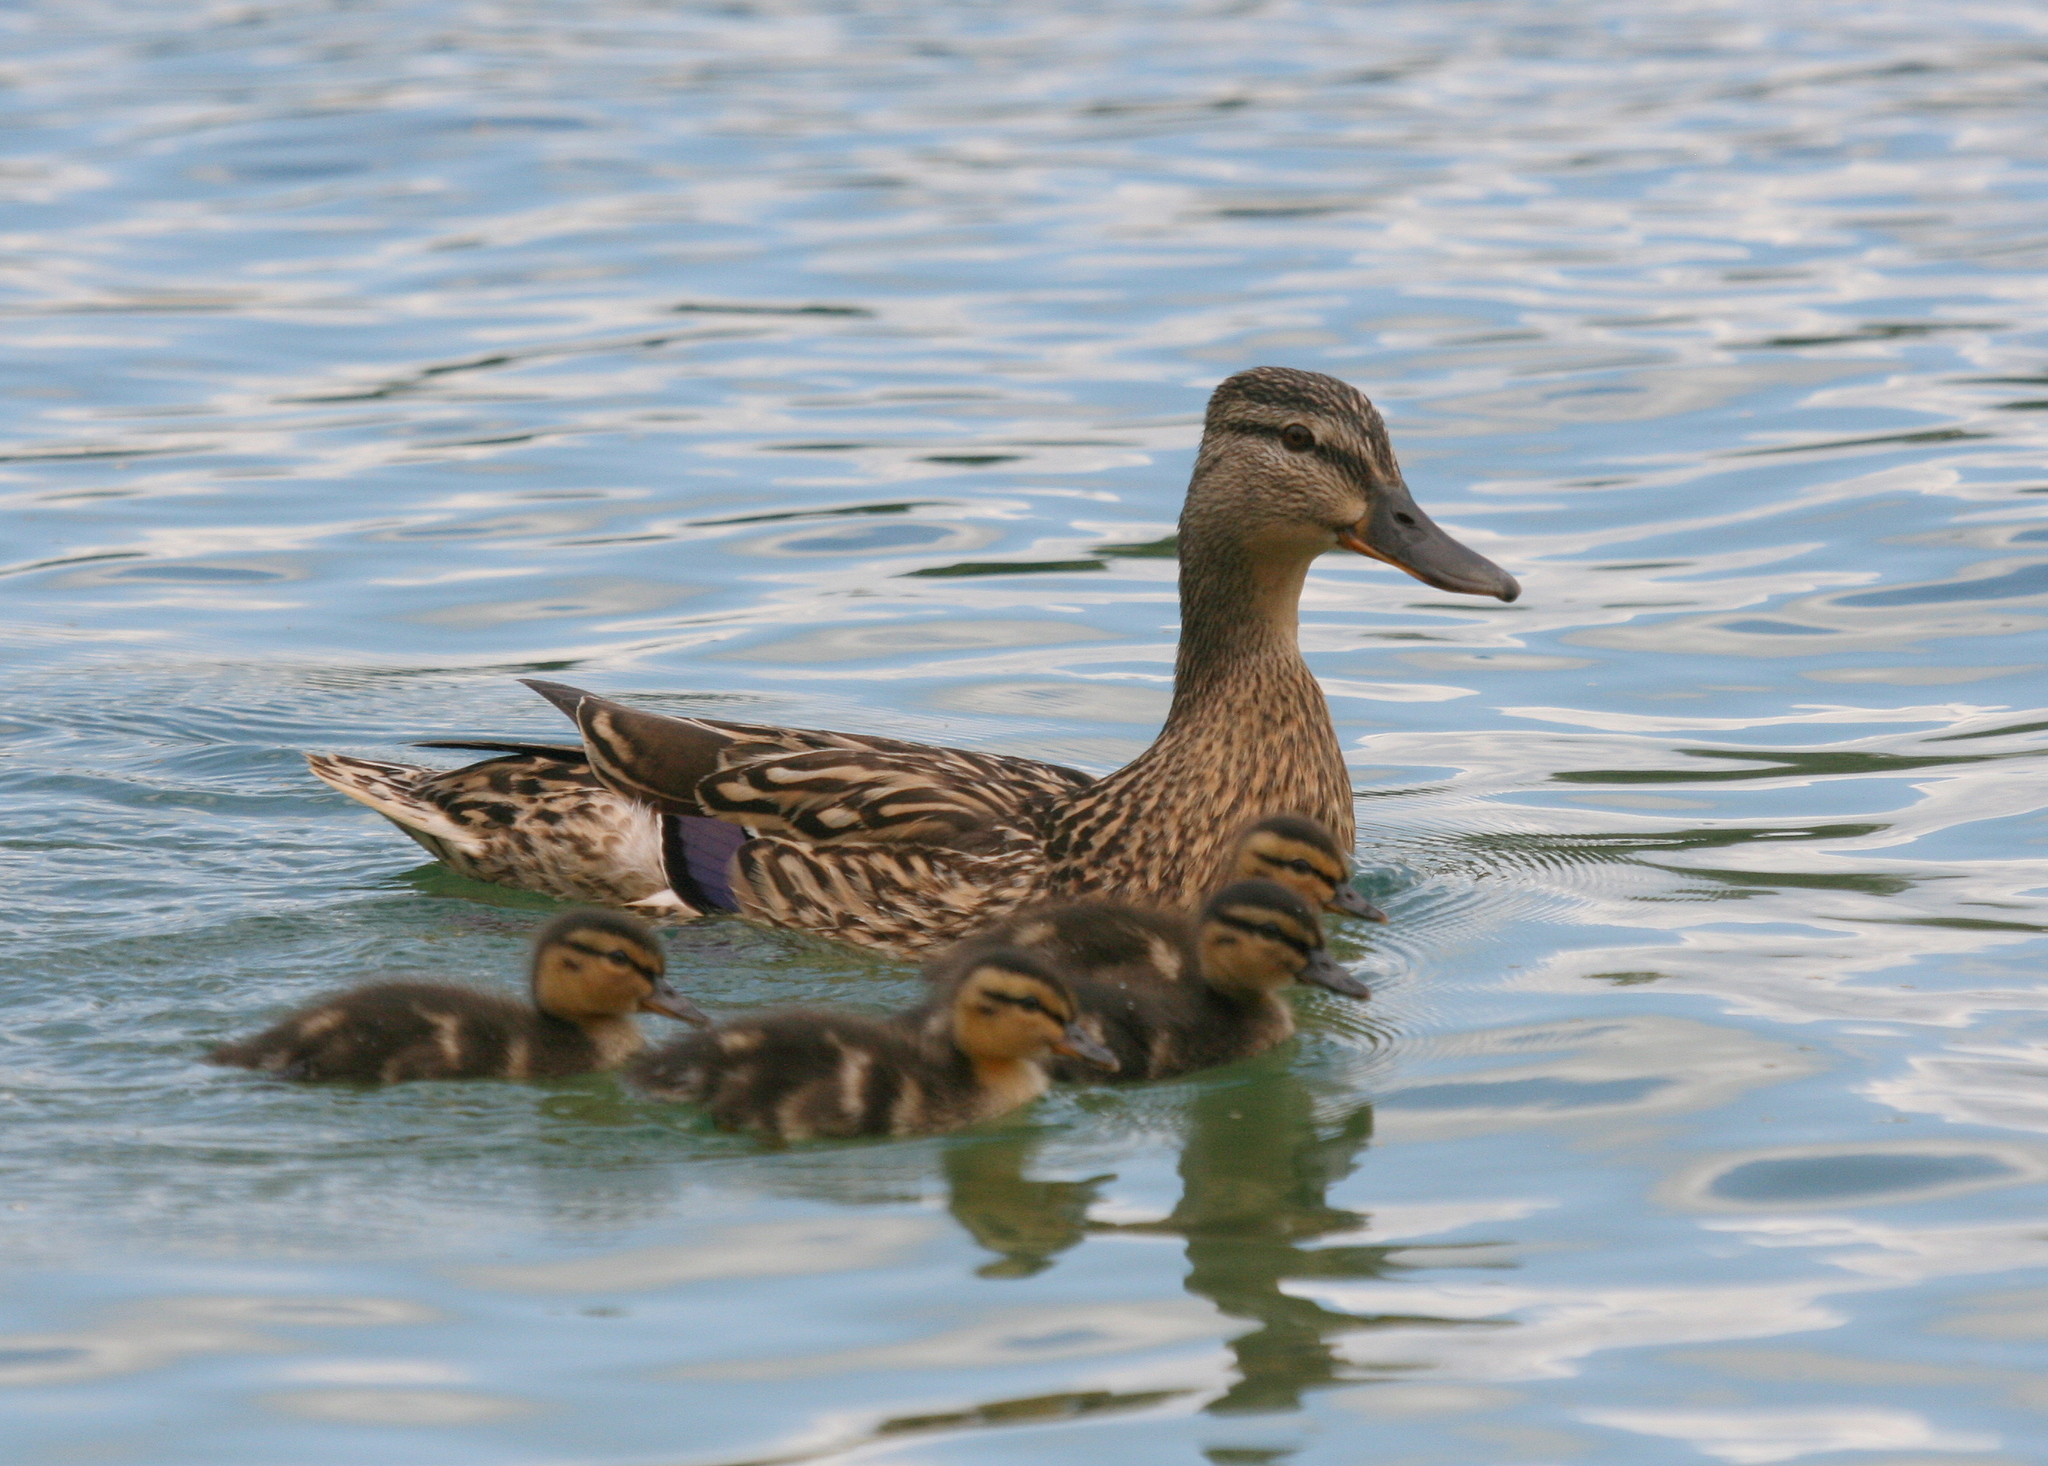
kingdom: Animalia
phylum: Chordata
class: Aves
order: Anseriformes
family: Anatidae
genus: Anas
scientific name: Anas platyrhynchos
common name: Mallard
